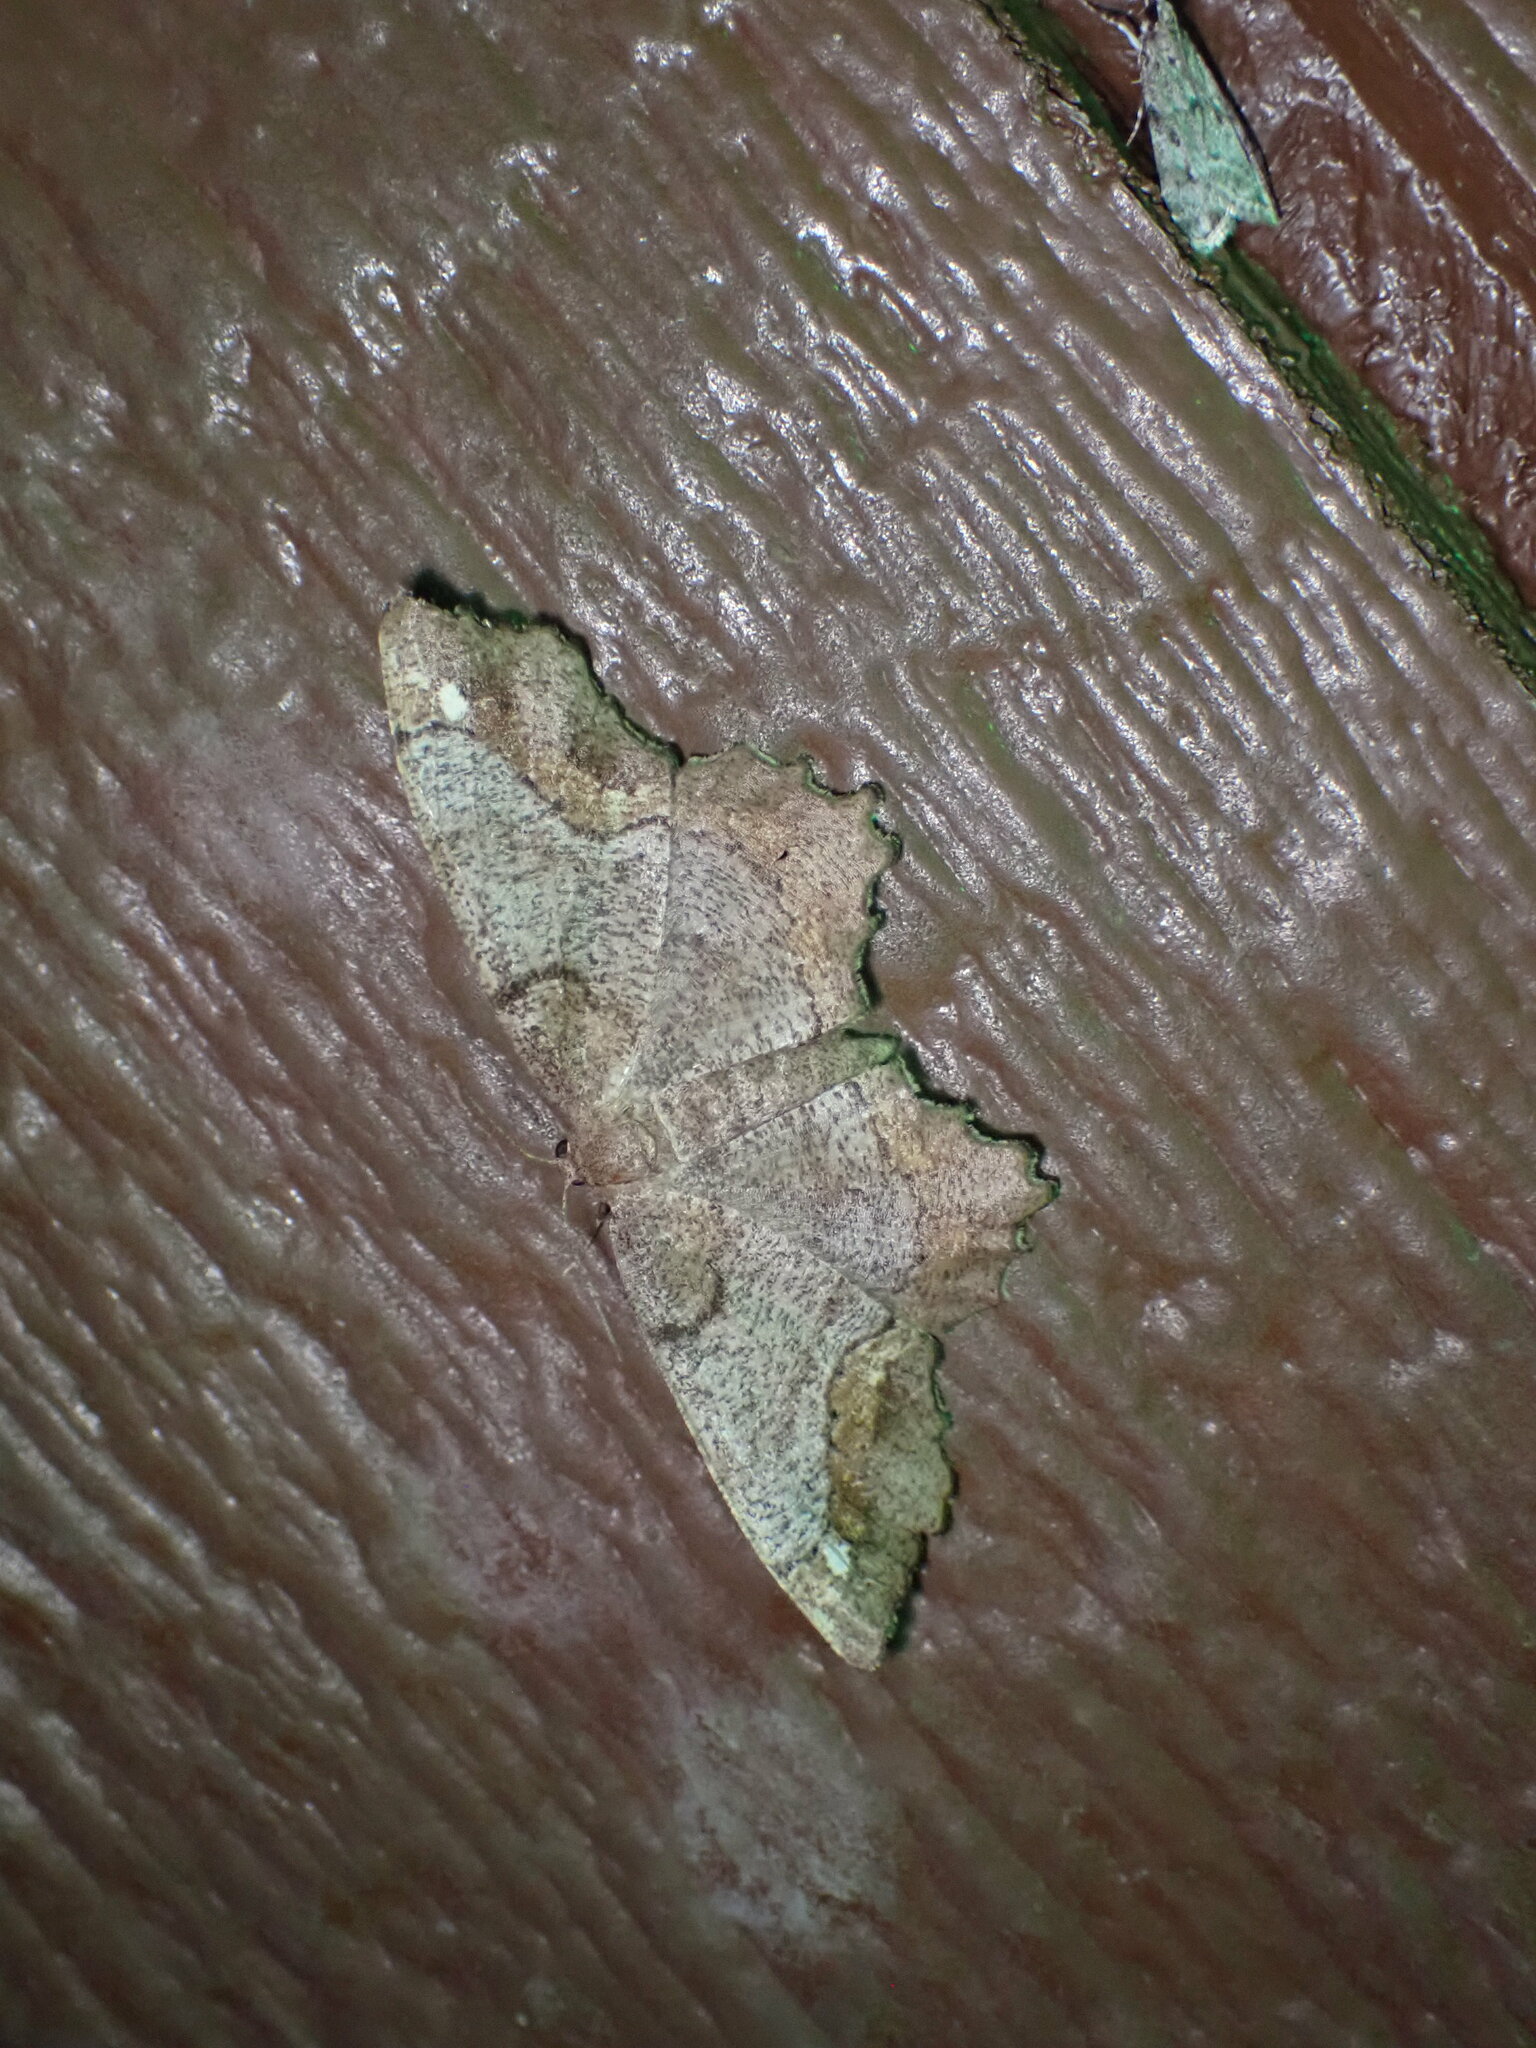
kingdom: Animalia
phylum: Arthropoda
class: Insecta
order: Lepidoptera
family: Geometridae
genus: Hypagyrtis
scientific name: Hypagyrtis unipunctata
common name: One-spotted variant
